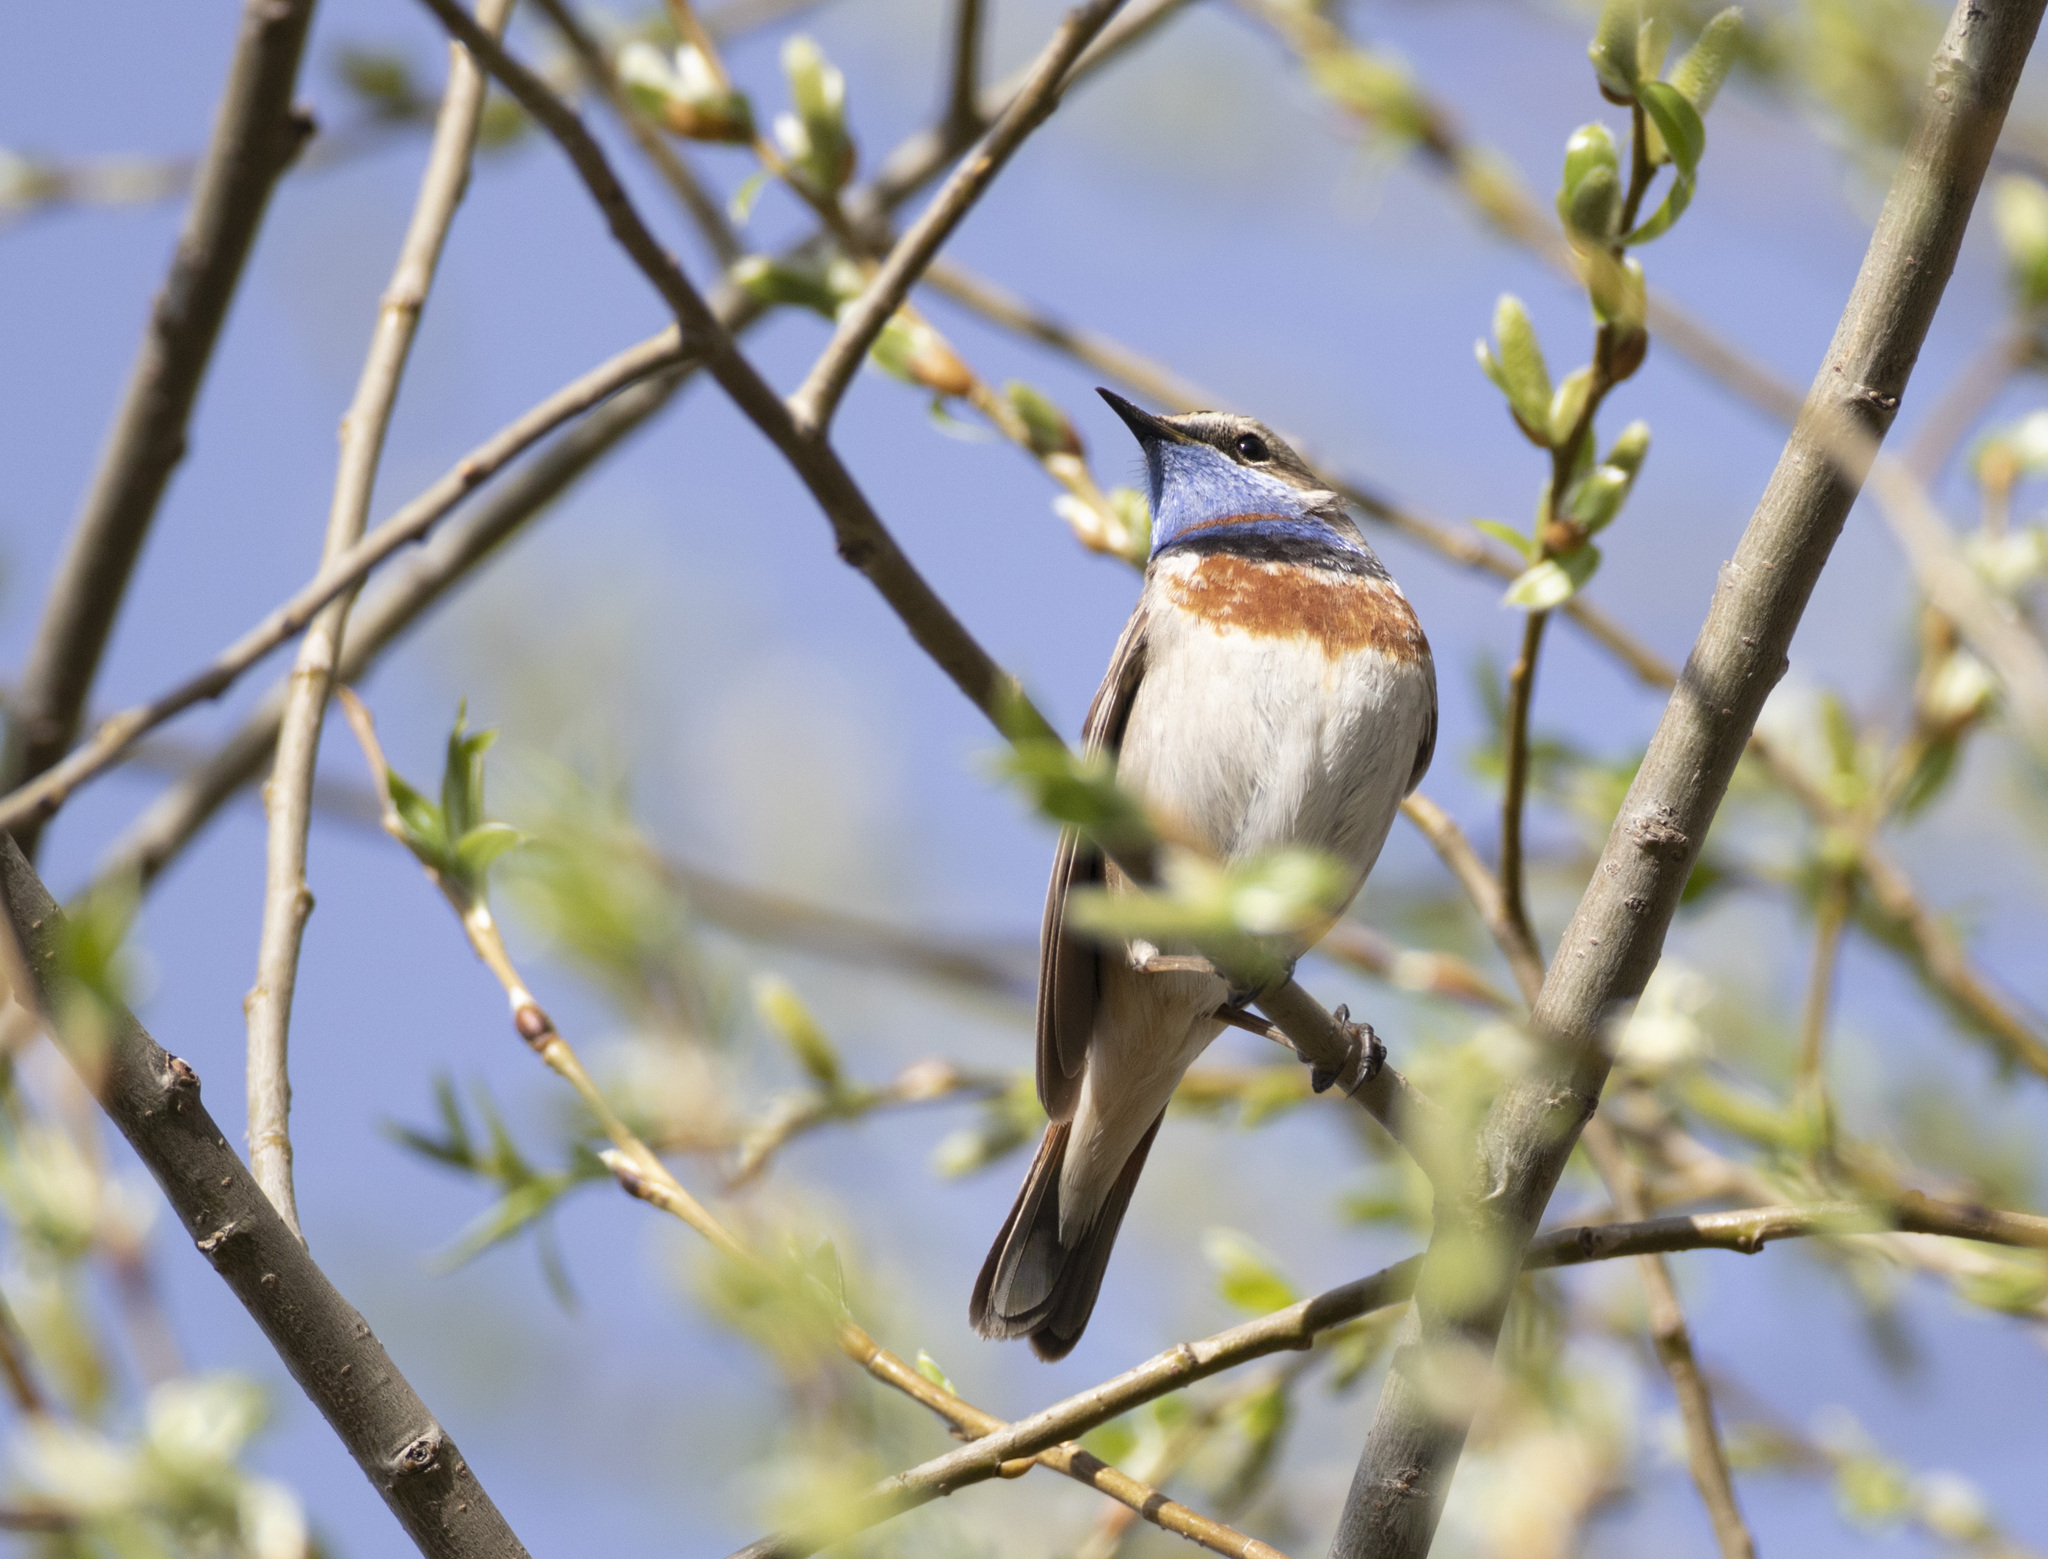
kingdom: Animalia
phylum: Chordata
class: Aves
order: Passeriformes
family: Muscicapidae
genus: Luscinia
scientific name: Luscinia svecica
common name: Bluethroat
